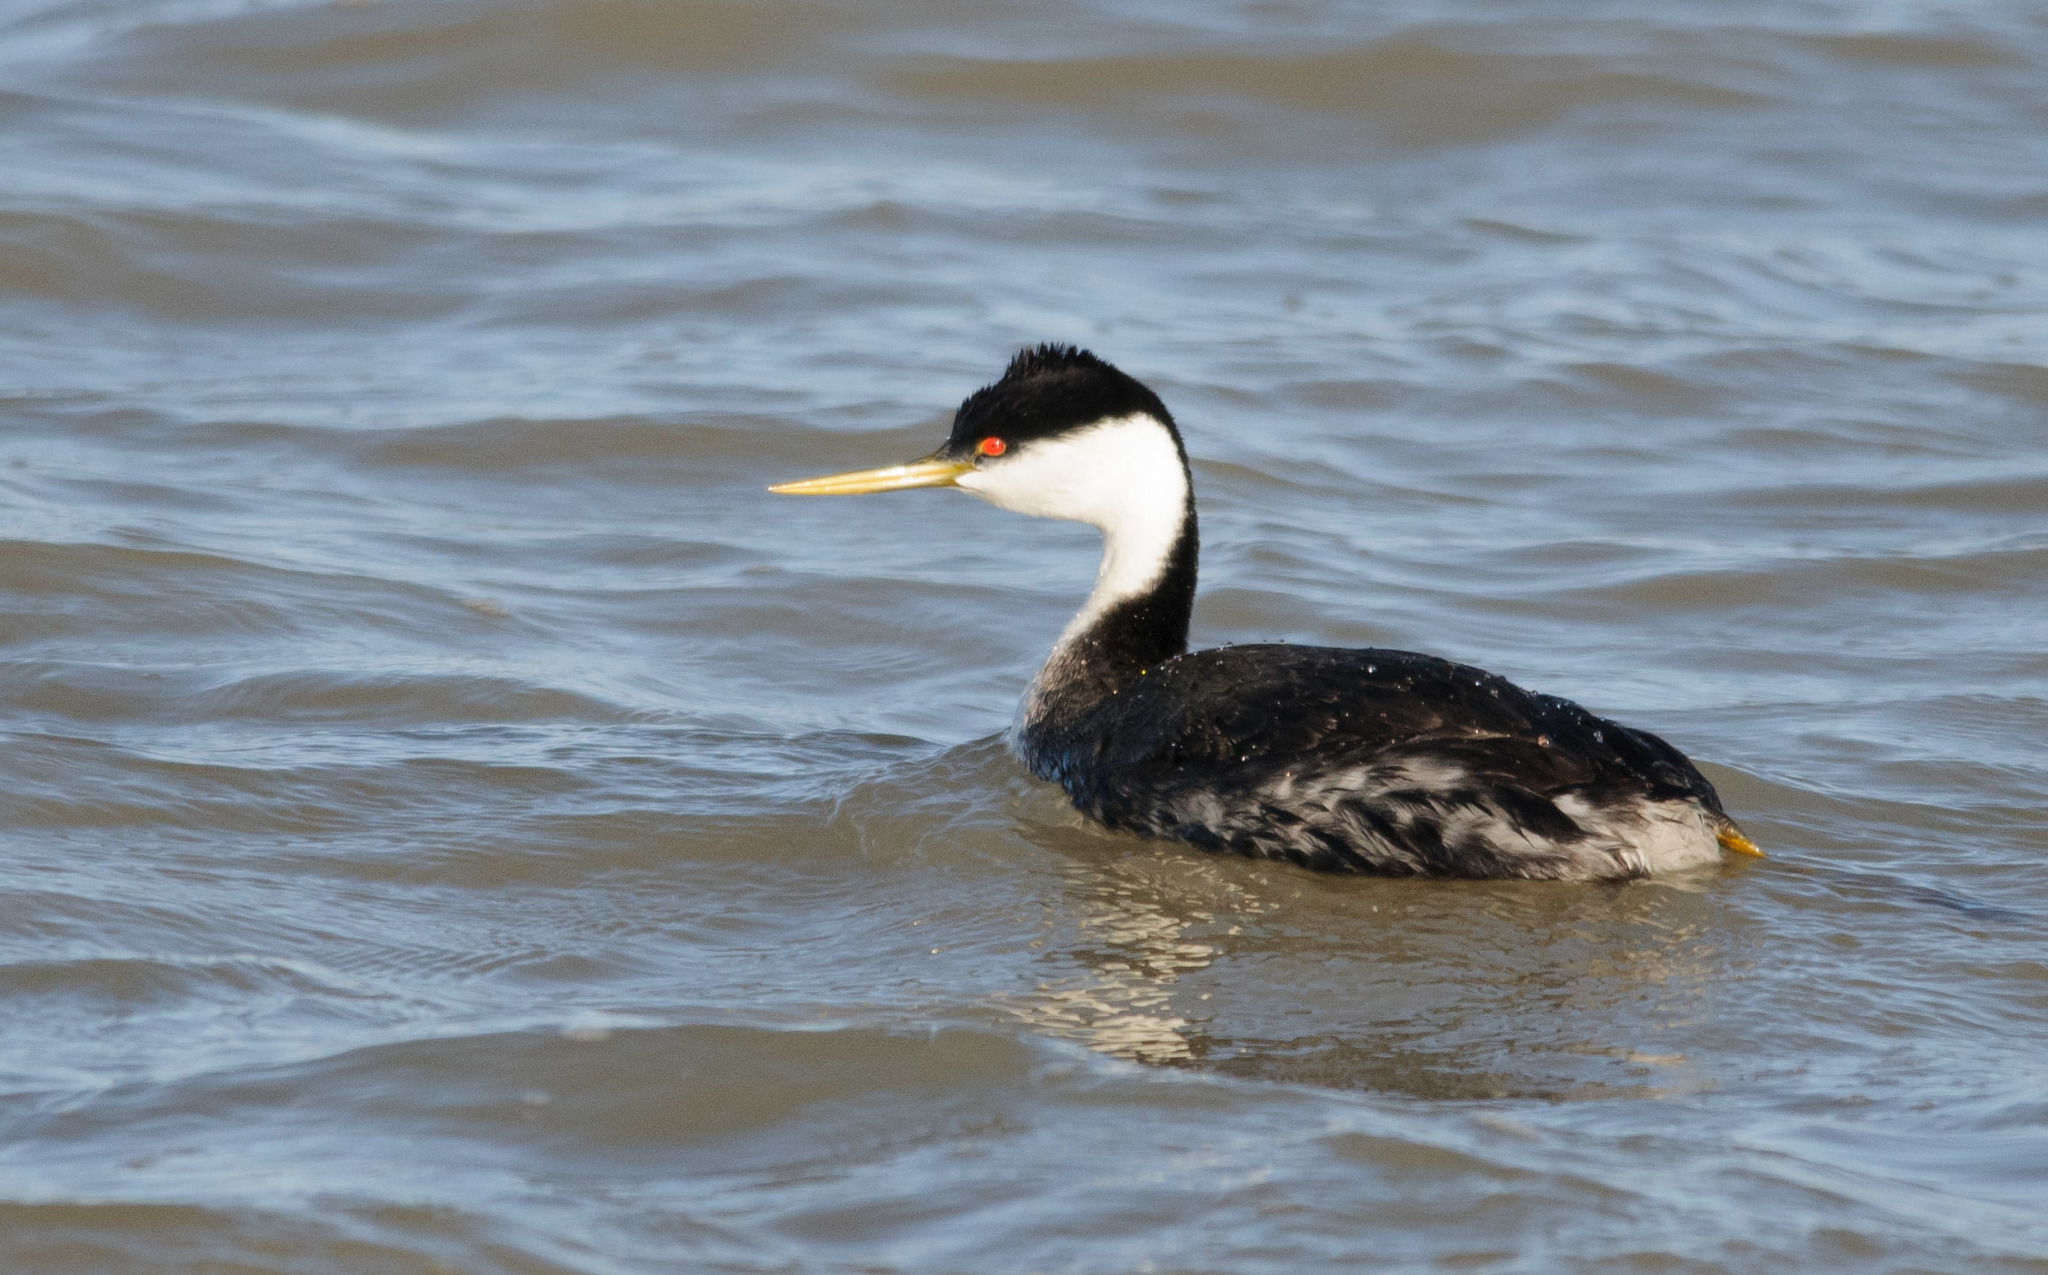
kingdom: Animalia
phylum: Chordata
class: Aves
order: Podicipediformes
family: Podicipedidae
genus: Aechmophorus
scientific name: Aechmophorus occidentalis
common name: Western grebe
